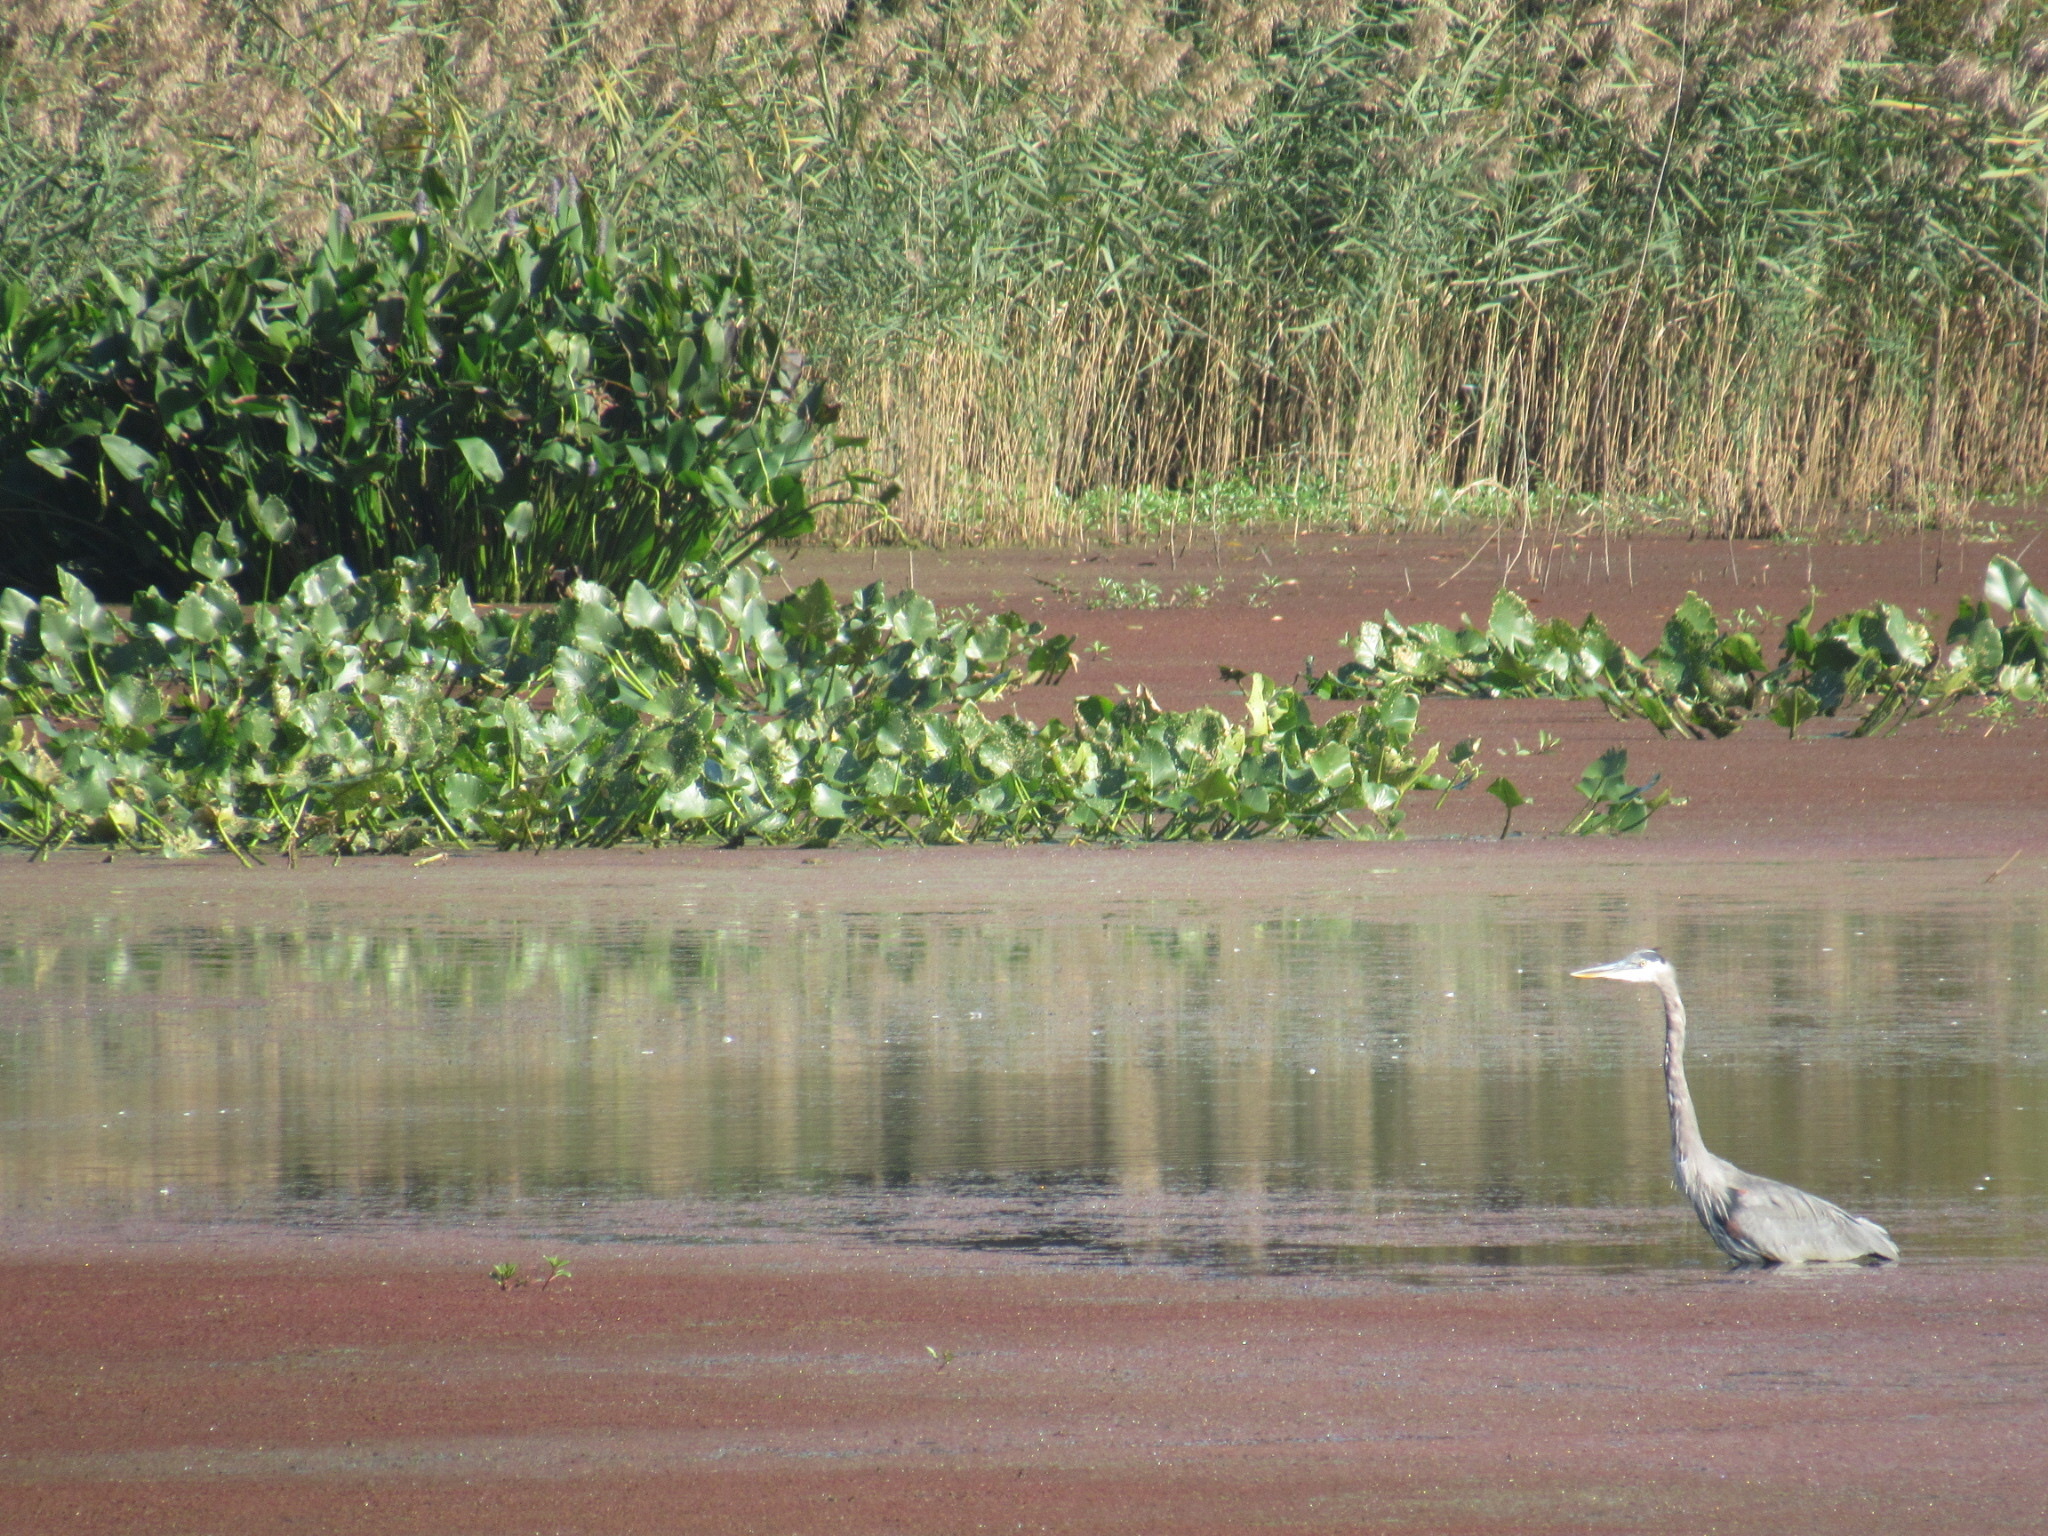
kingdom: Animalia
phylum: Chordata
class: Aves
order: Pelecaniformes
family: Ardeidae
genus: Ardea
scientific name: Ardea herodias
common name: Great blue heron
